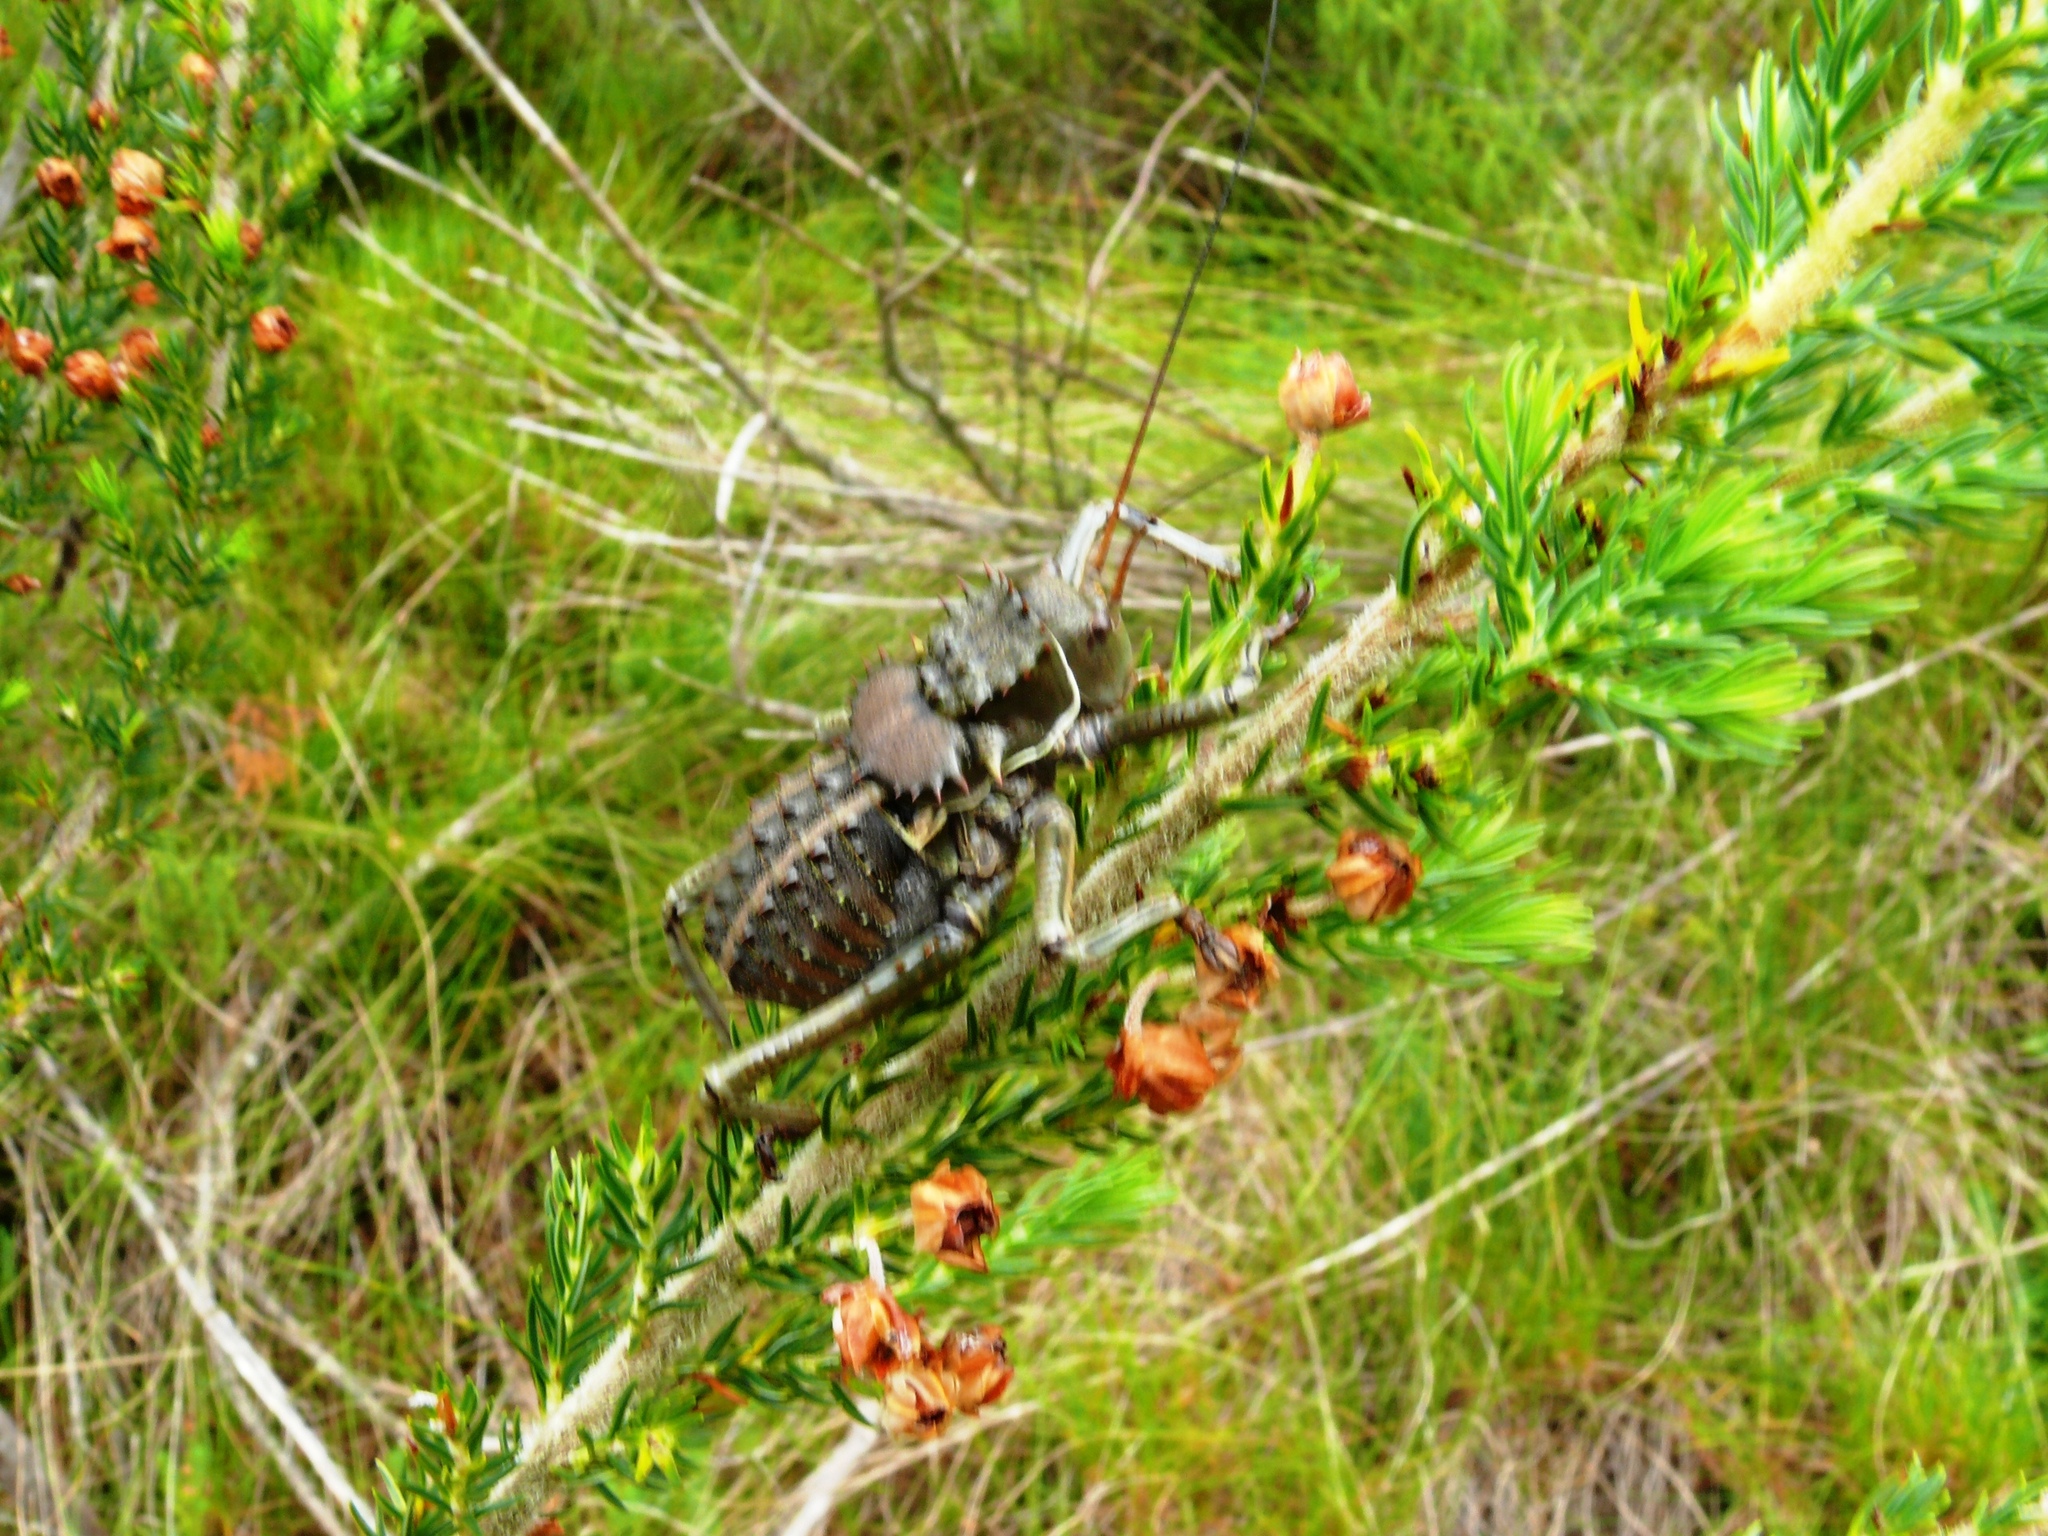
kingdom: Animalia
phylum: Arthropoda
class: Insecta
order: Orthoptera
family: Tettigoniidae
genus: Hetrodes
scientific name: Hetrodes pupus
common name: Koringkriek
